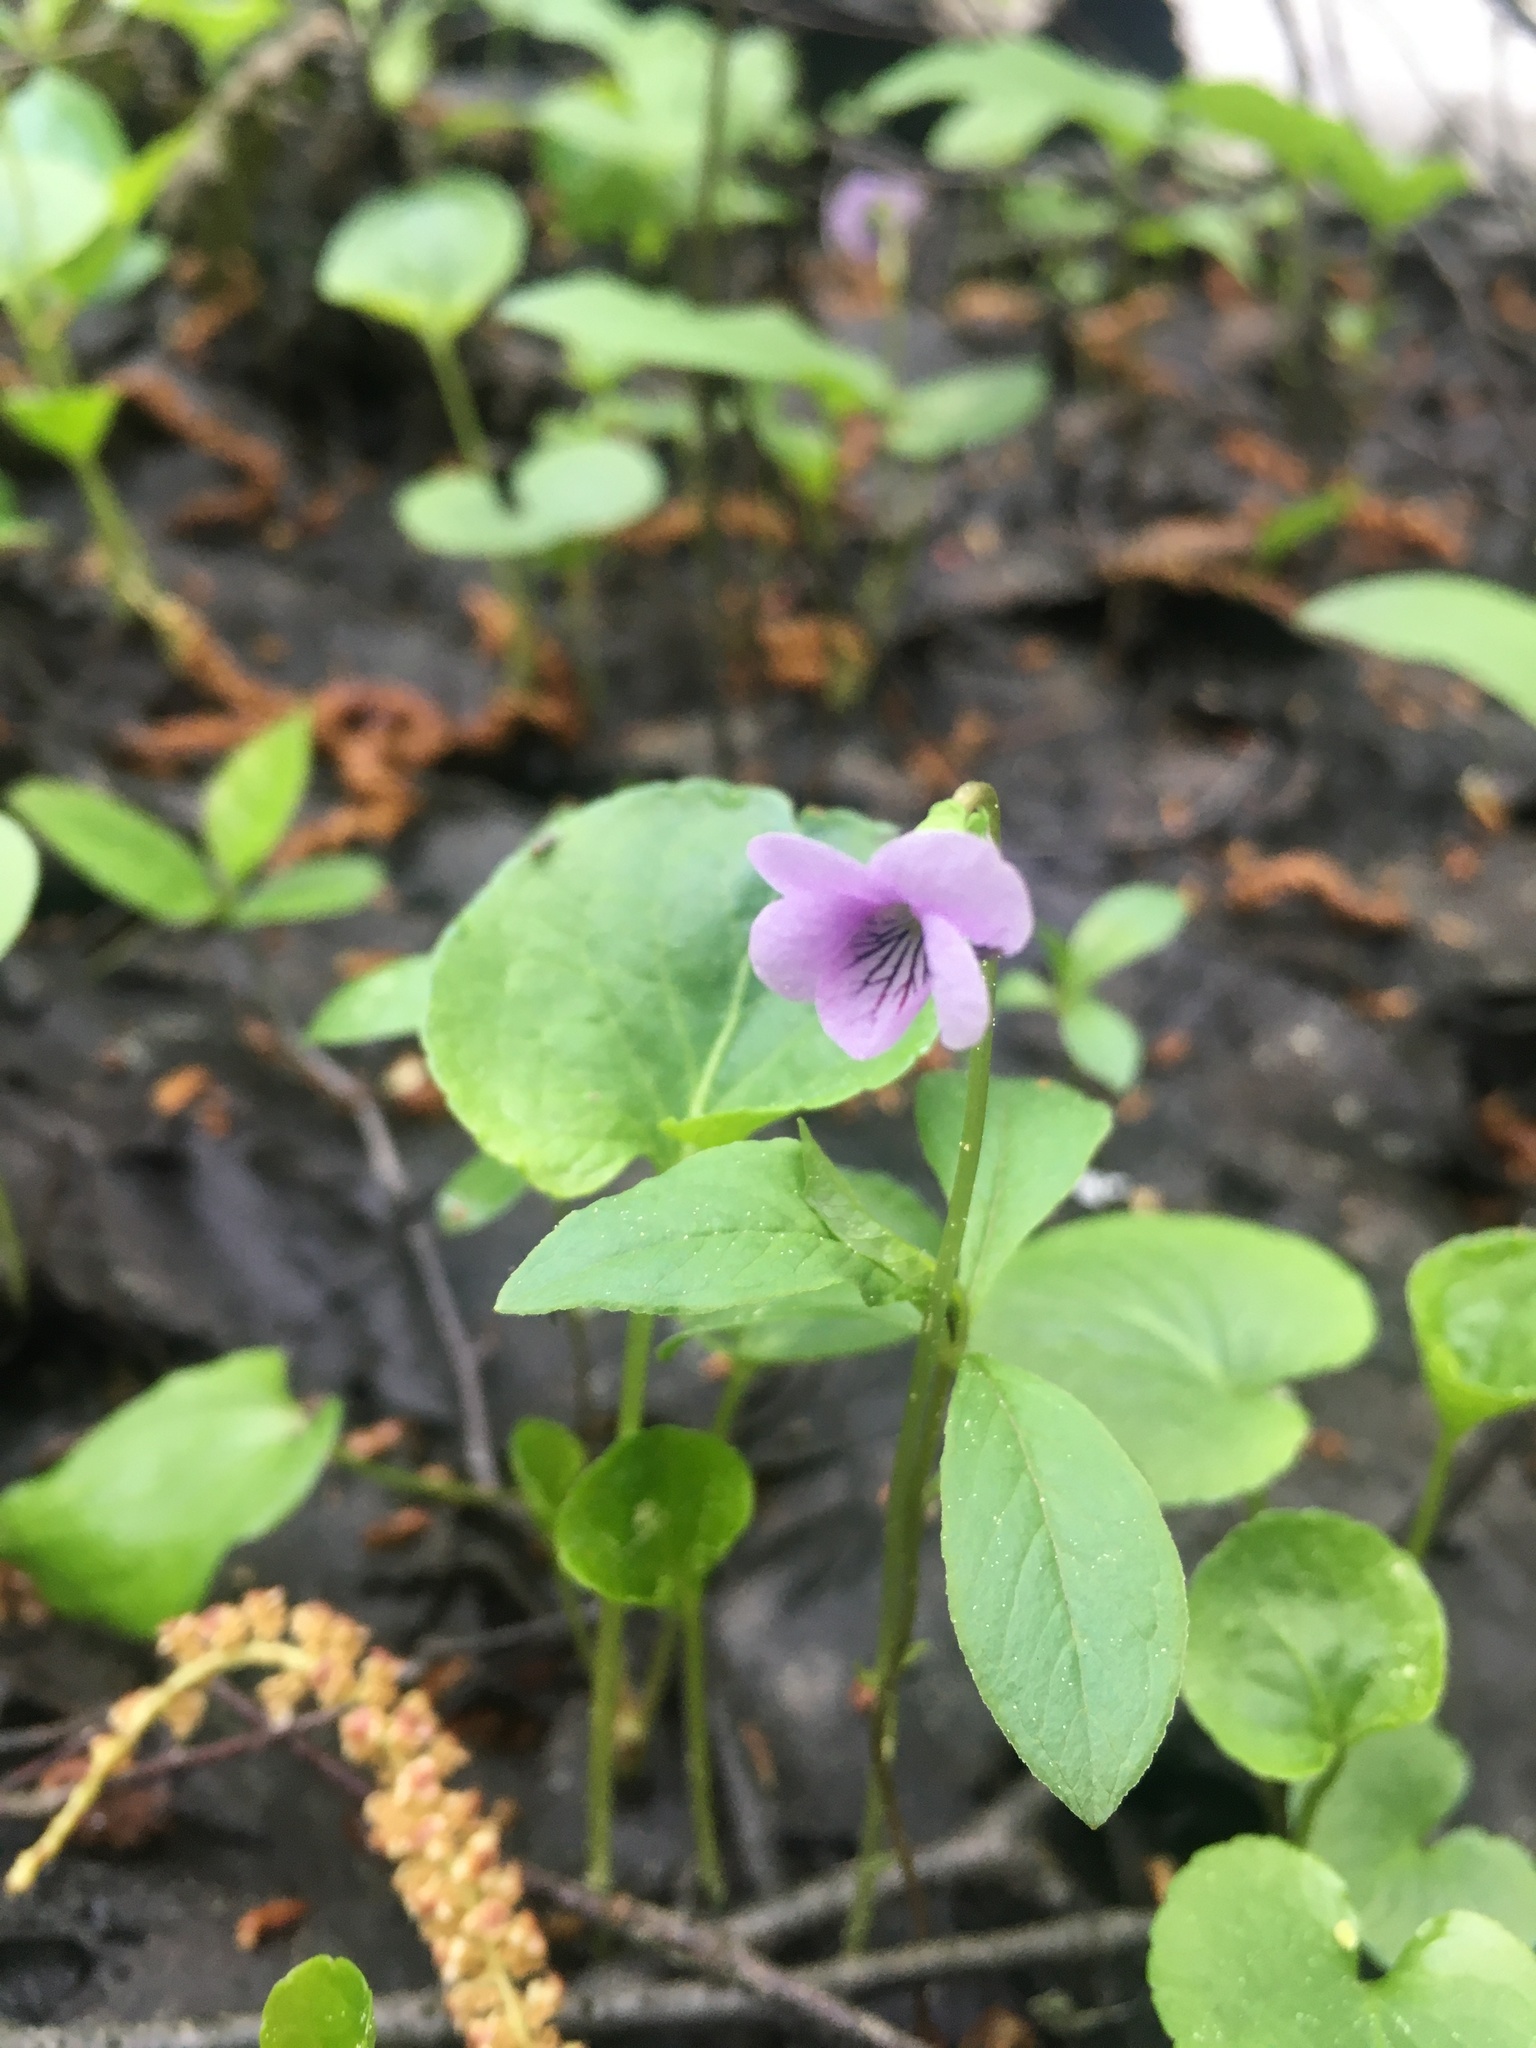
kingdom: Plantae
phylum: Tracheophyta
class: Magnoliopsida
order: Malpighiales
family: Violaceae
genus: Viola
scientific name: Viola palustris
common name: Marsh violet
